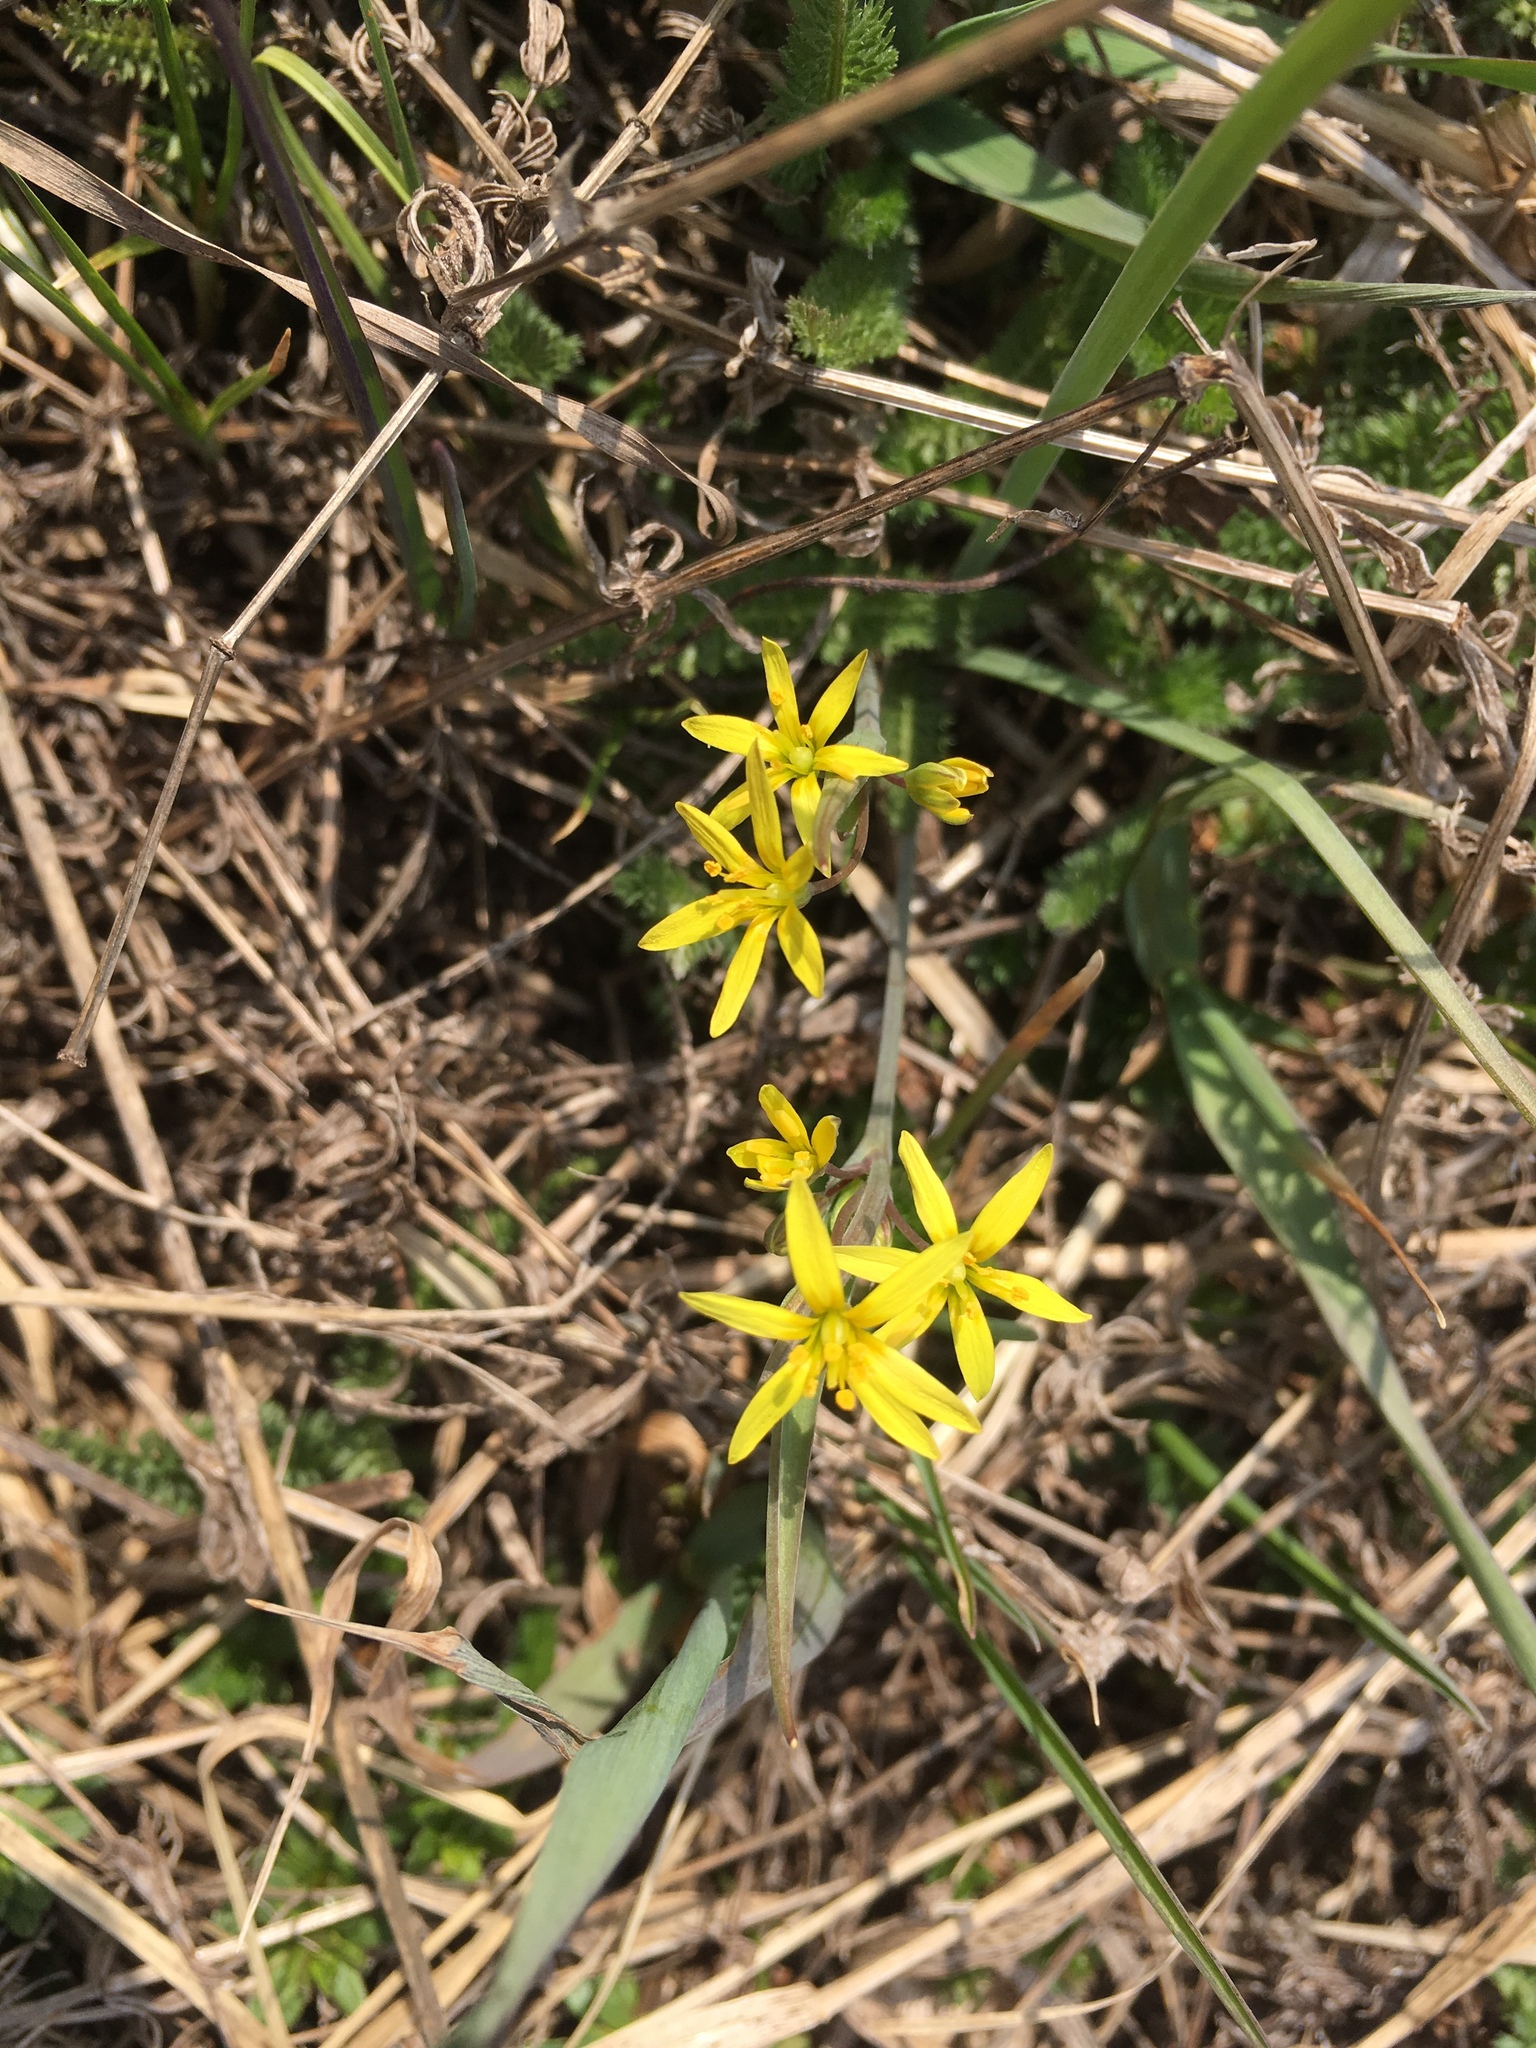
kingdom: Plantae
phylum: Tracheophyta
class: Liliopsida
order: Liliales
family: Liliaceae
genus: Gagea
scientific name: Gagea fragifera
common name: Lily
